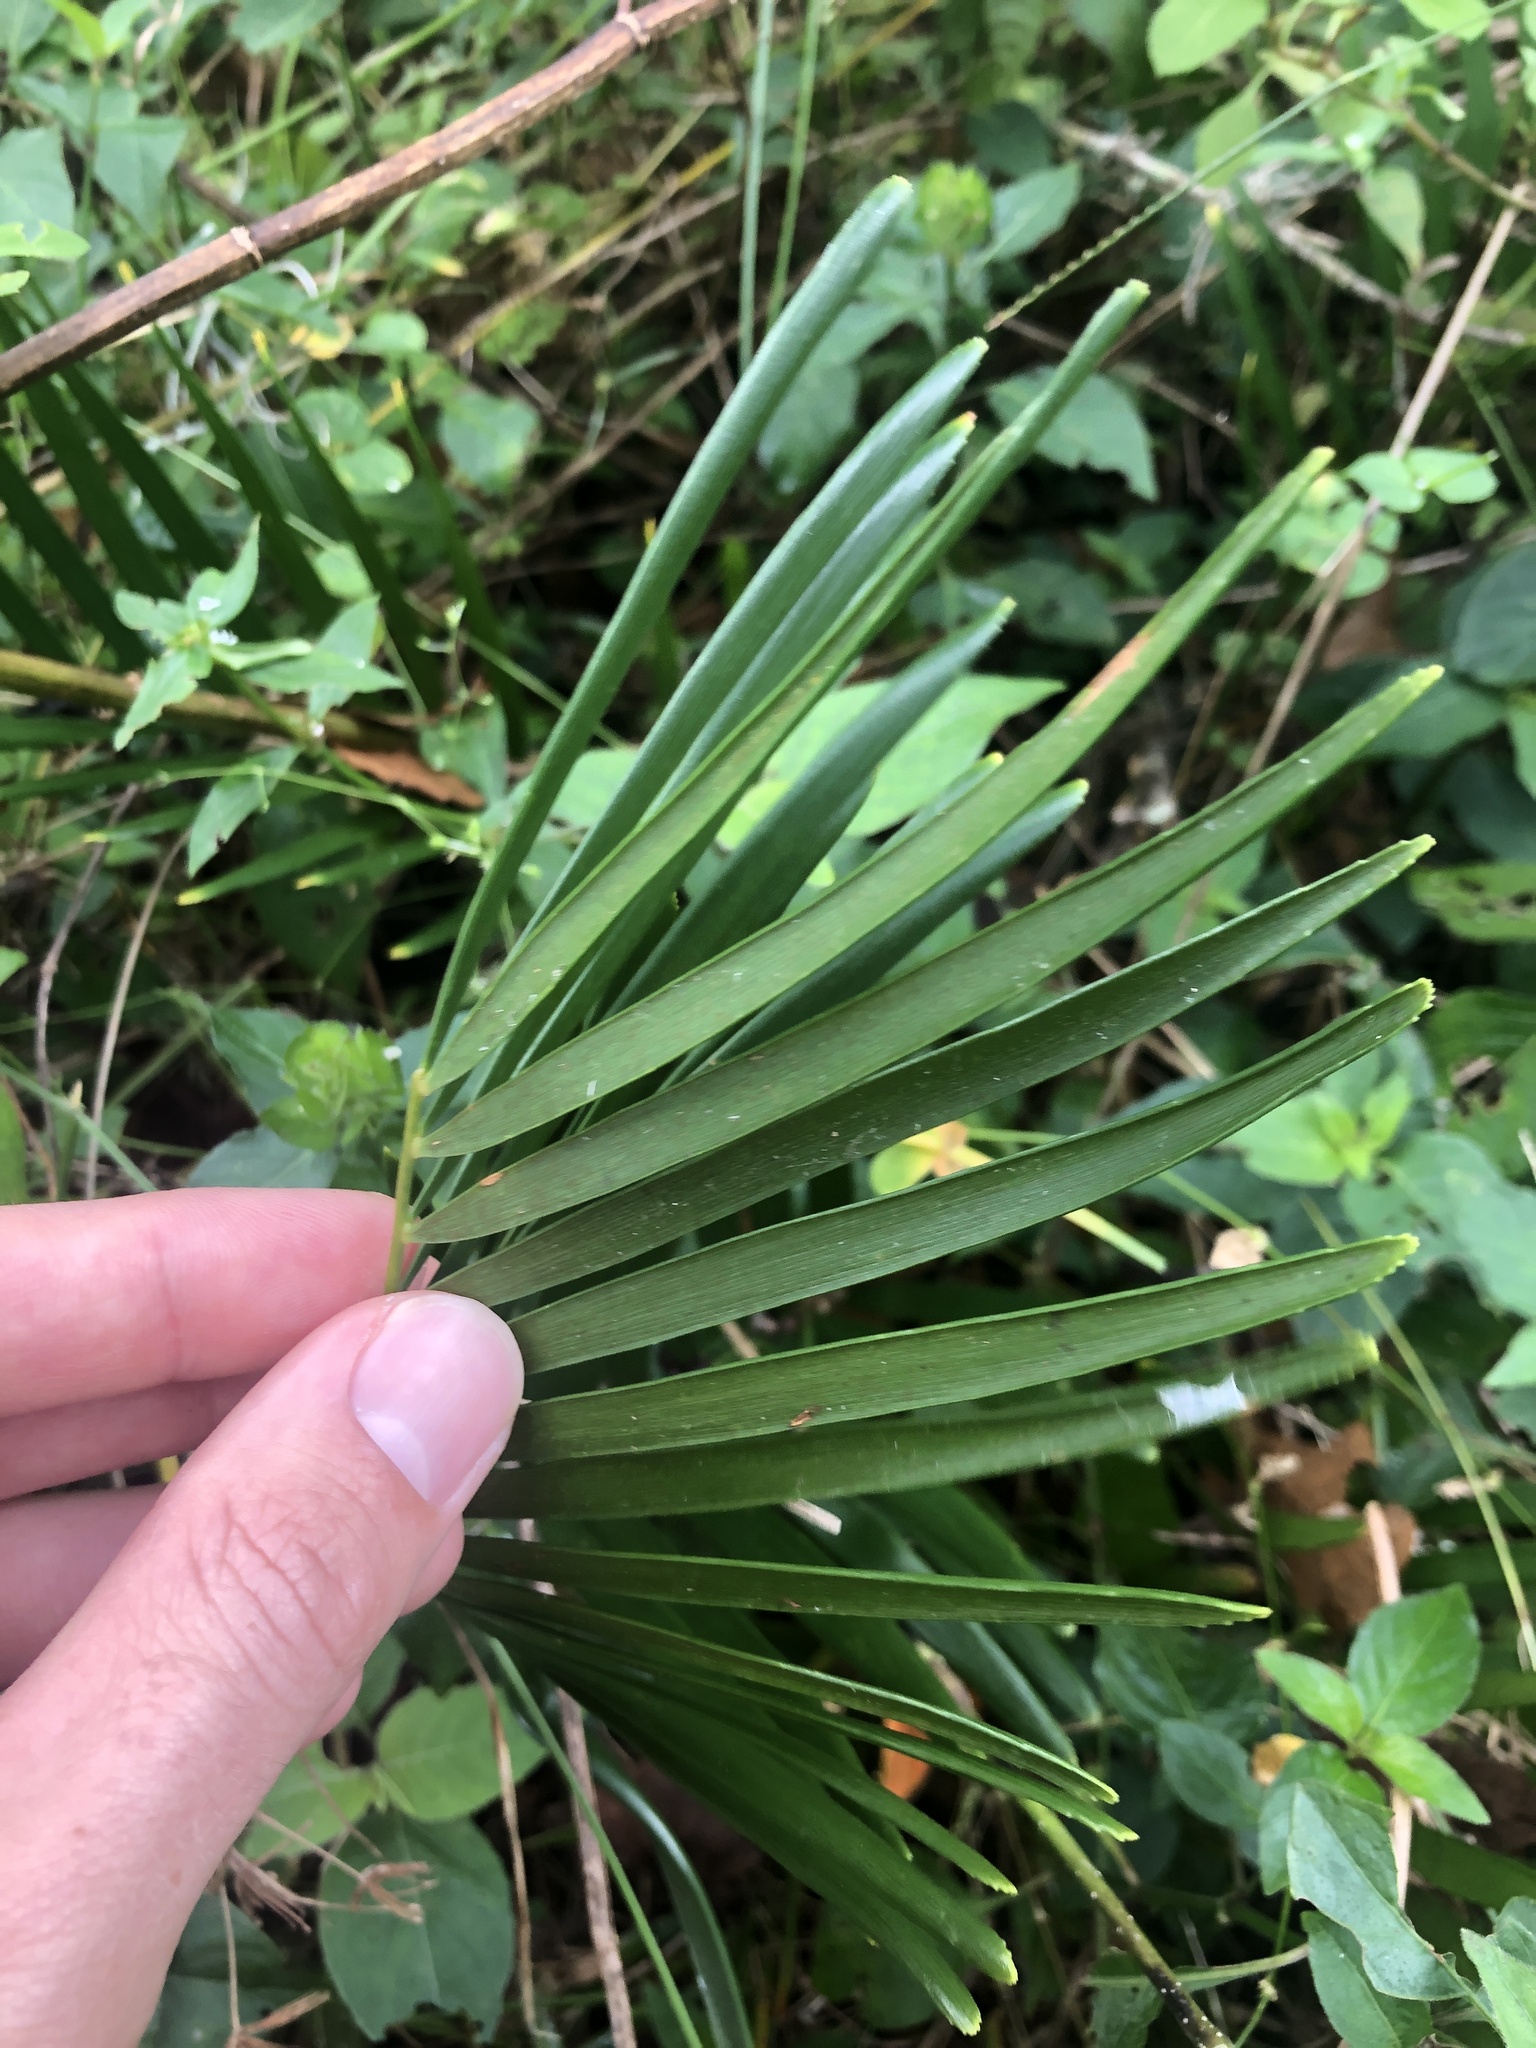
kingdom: Plantae
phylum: Tracheophyta
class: Cycadopsida
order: Cycadales
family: Zamiaceae
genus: Zamia
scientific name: Zamia integrifolia
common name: Florida arrowroot
